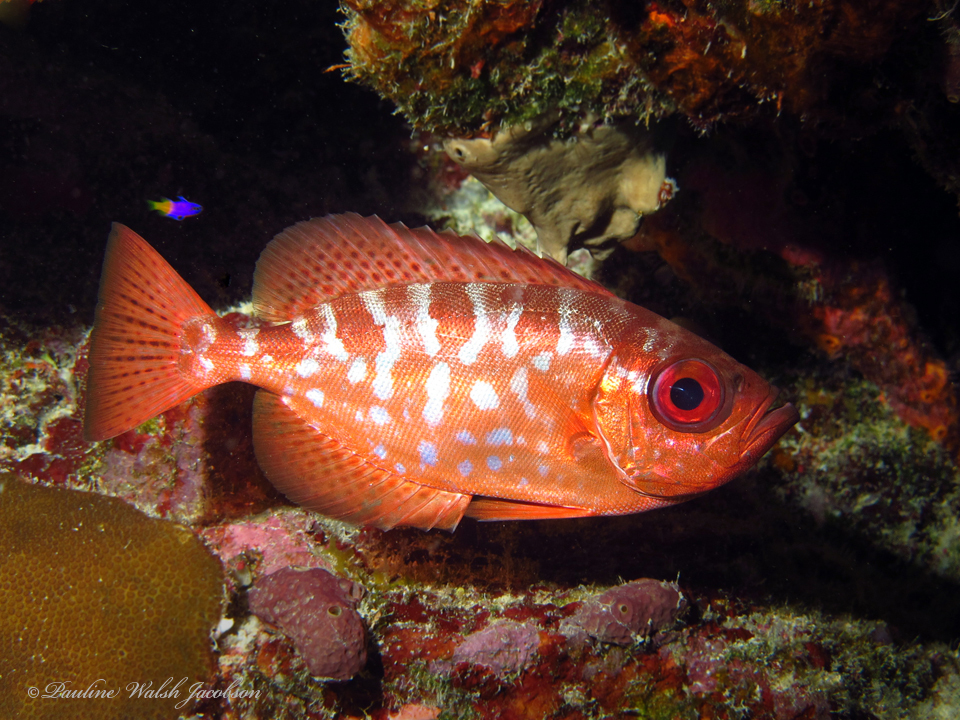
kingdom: Animalia
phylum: Chordata
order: Perciformes
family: Priacanthidae
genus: Heteropriacanthus
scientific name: Heteropriacanthus cruentatus
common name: Glasseye
